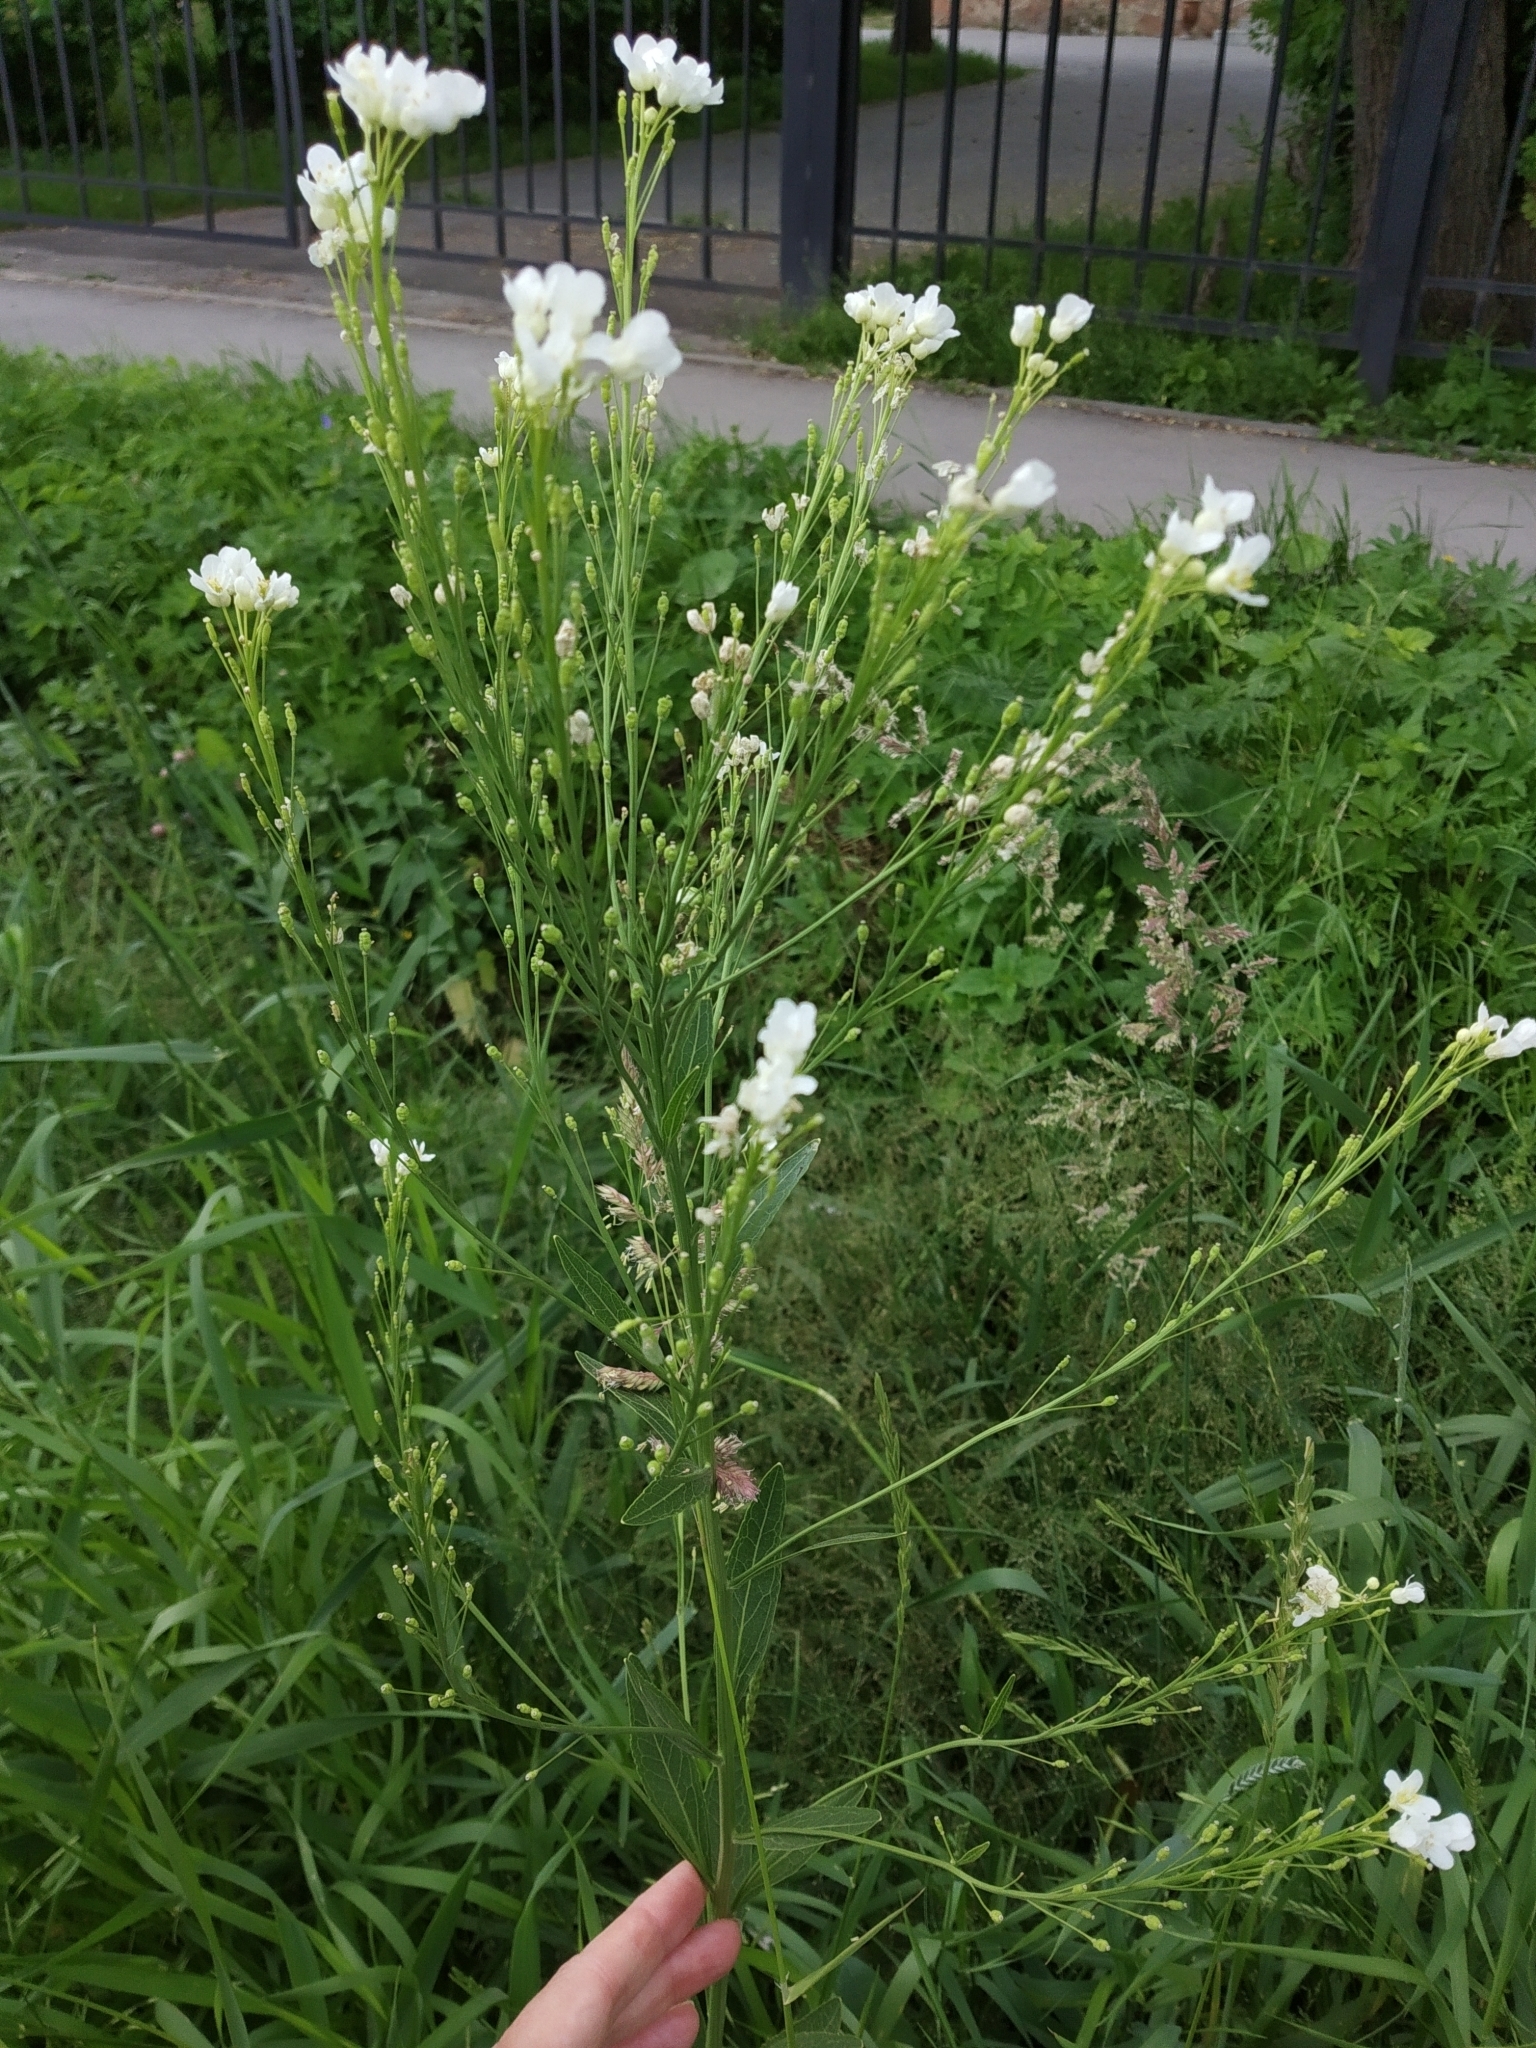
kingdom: Plantae
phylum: Tracheophyta
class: Magnoliopsida
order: Brassicales
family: Brassicaceae
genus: Berteroa
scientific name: Berteroa incana
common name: Hoary alison
